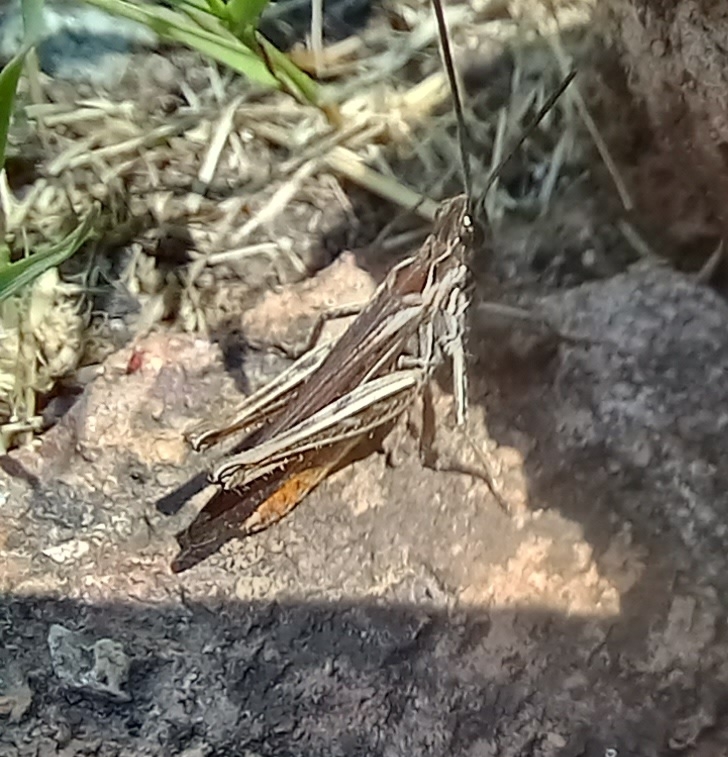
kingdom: Animalia
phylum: Arthropoda
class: Insecta
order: Orthoptera
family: Acrididae
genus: Chorthippus
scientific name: Chorthippus brunneus
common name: Field grasshopper
